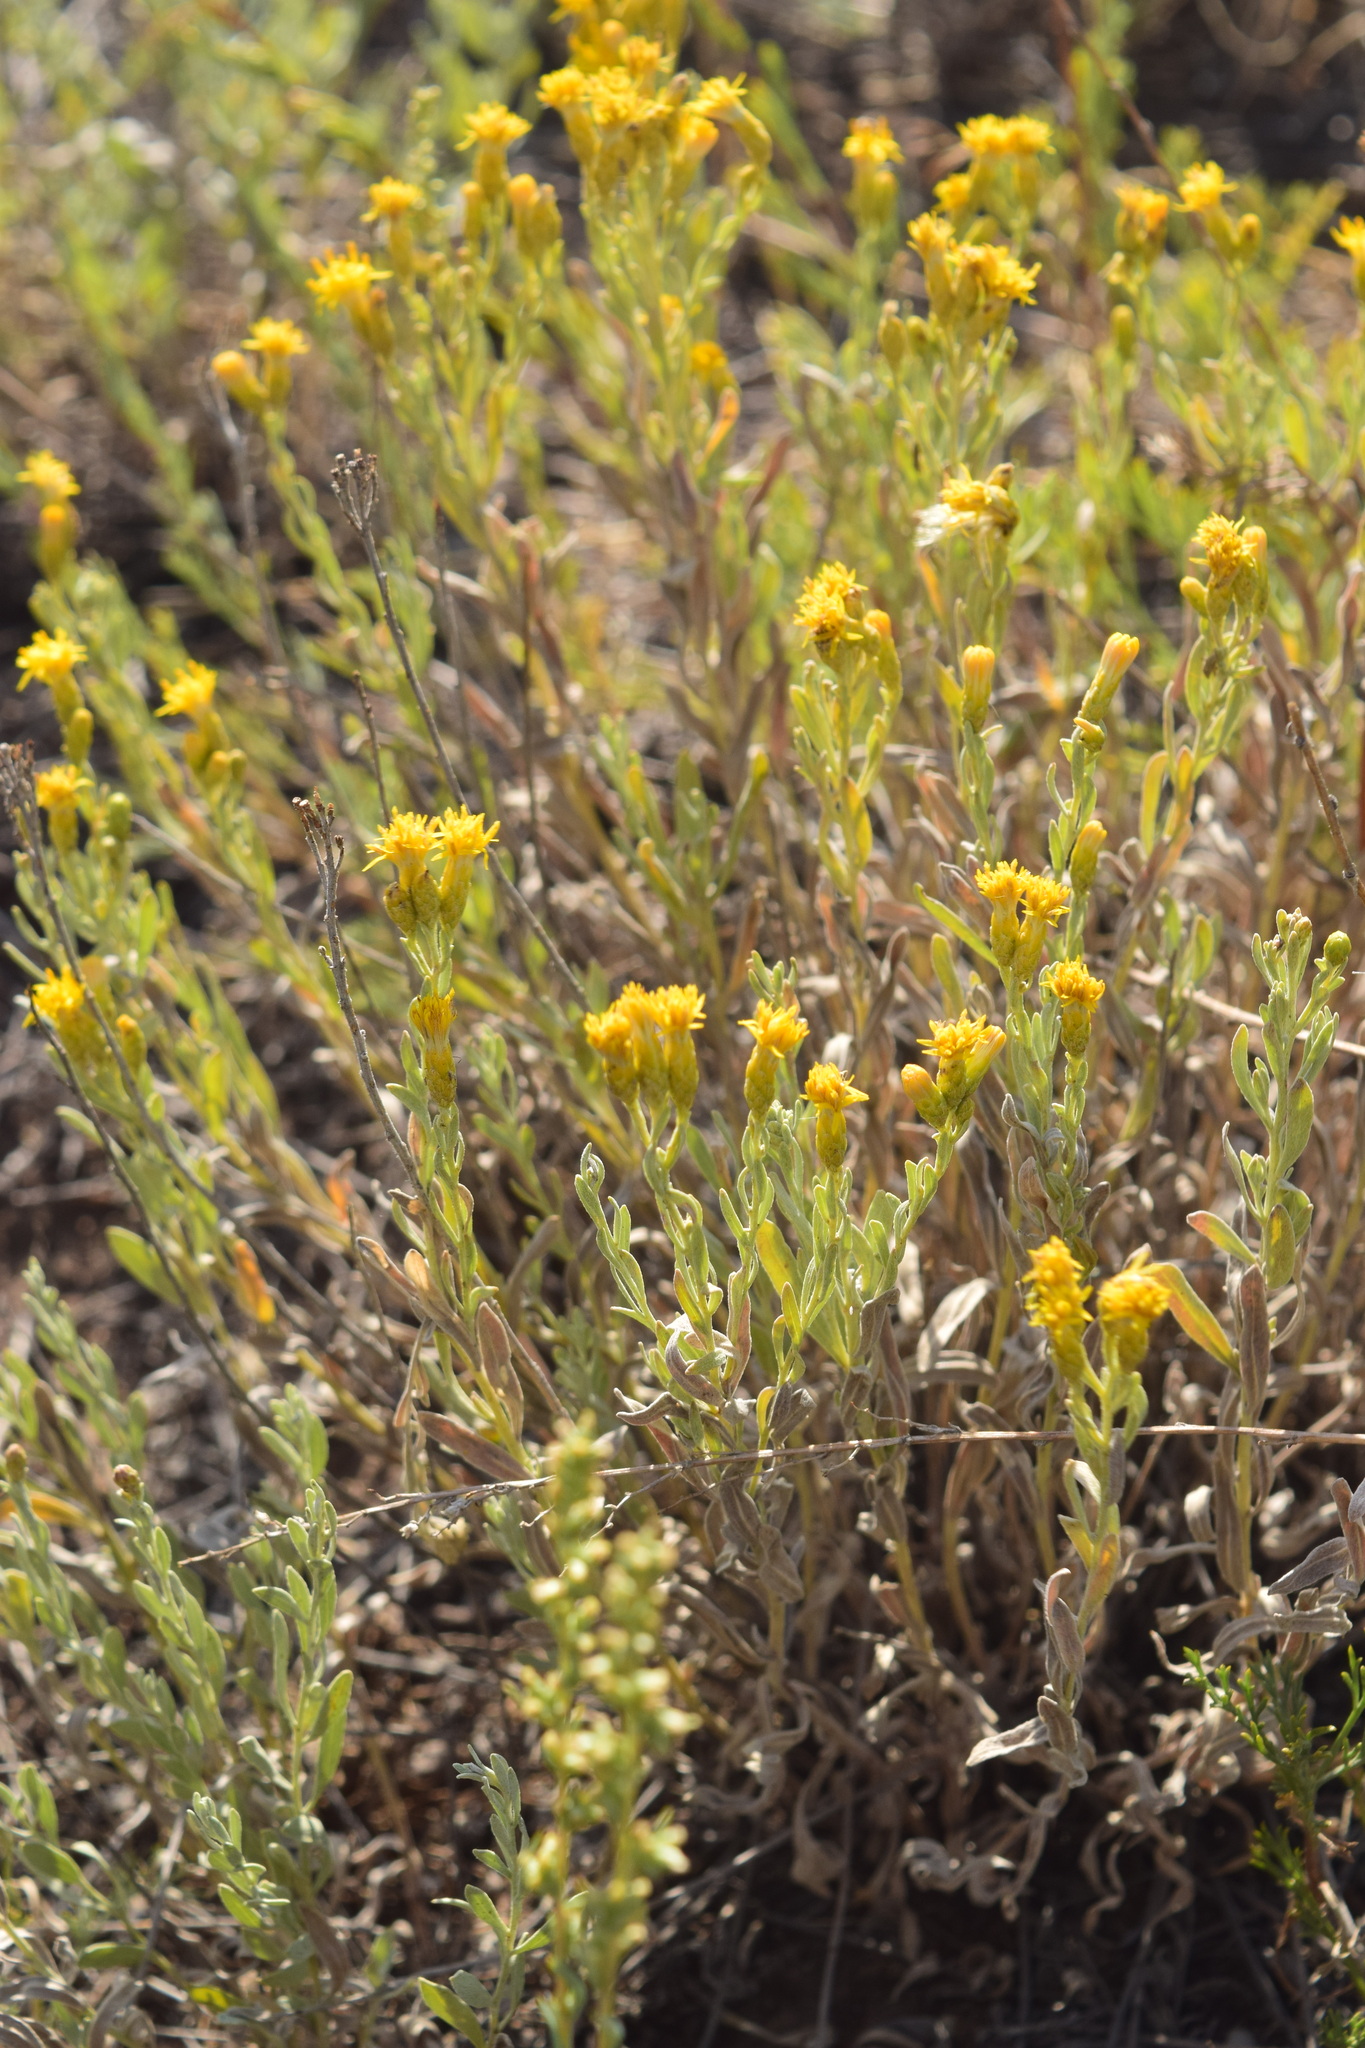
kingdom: Plantae
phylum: Tracheophyta
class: Magnoliopsida
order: Asterales
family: Asteraceae
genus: Galatella
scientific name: Galatella linosyris
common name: Goldilocks aster
